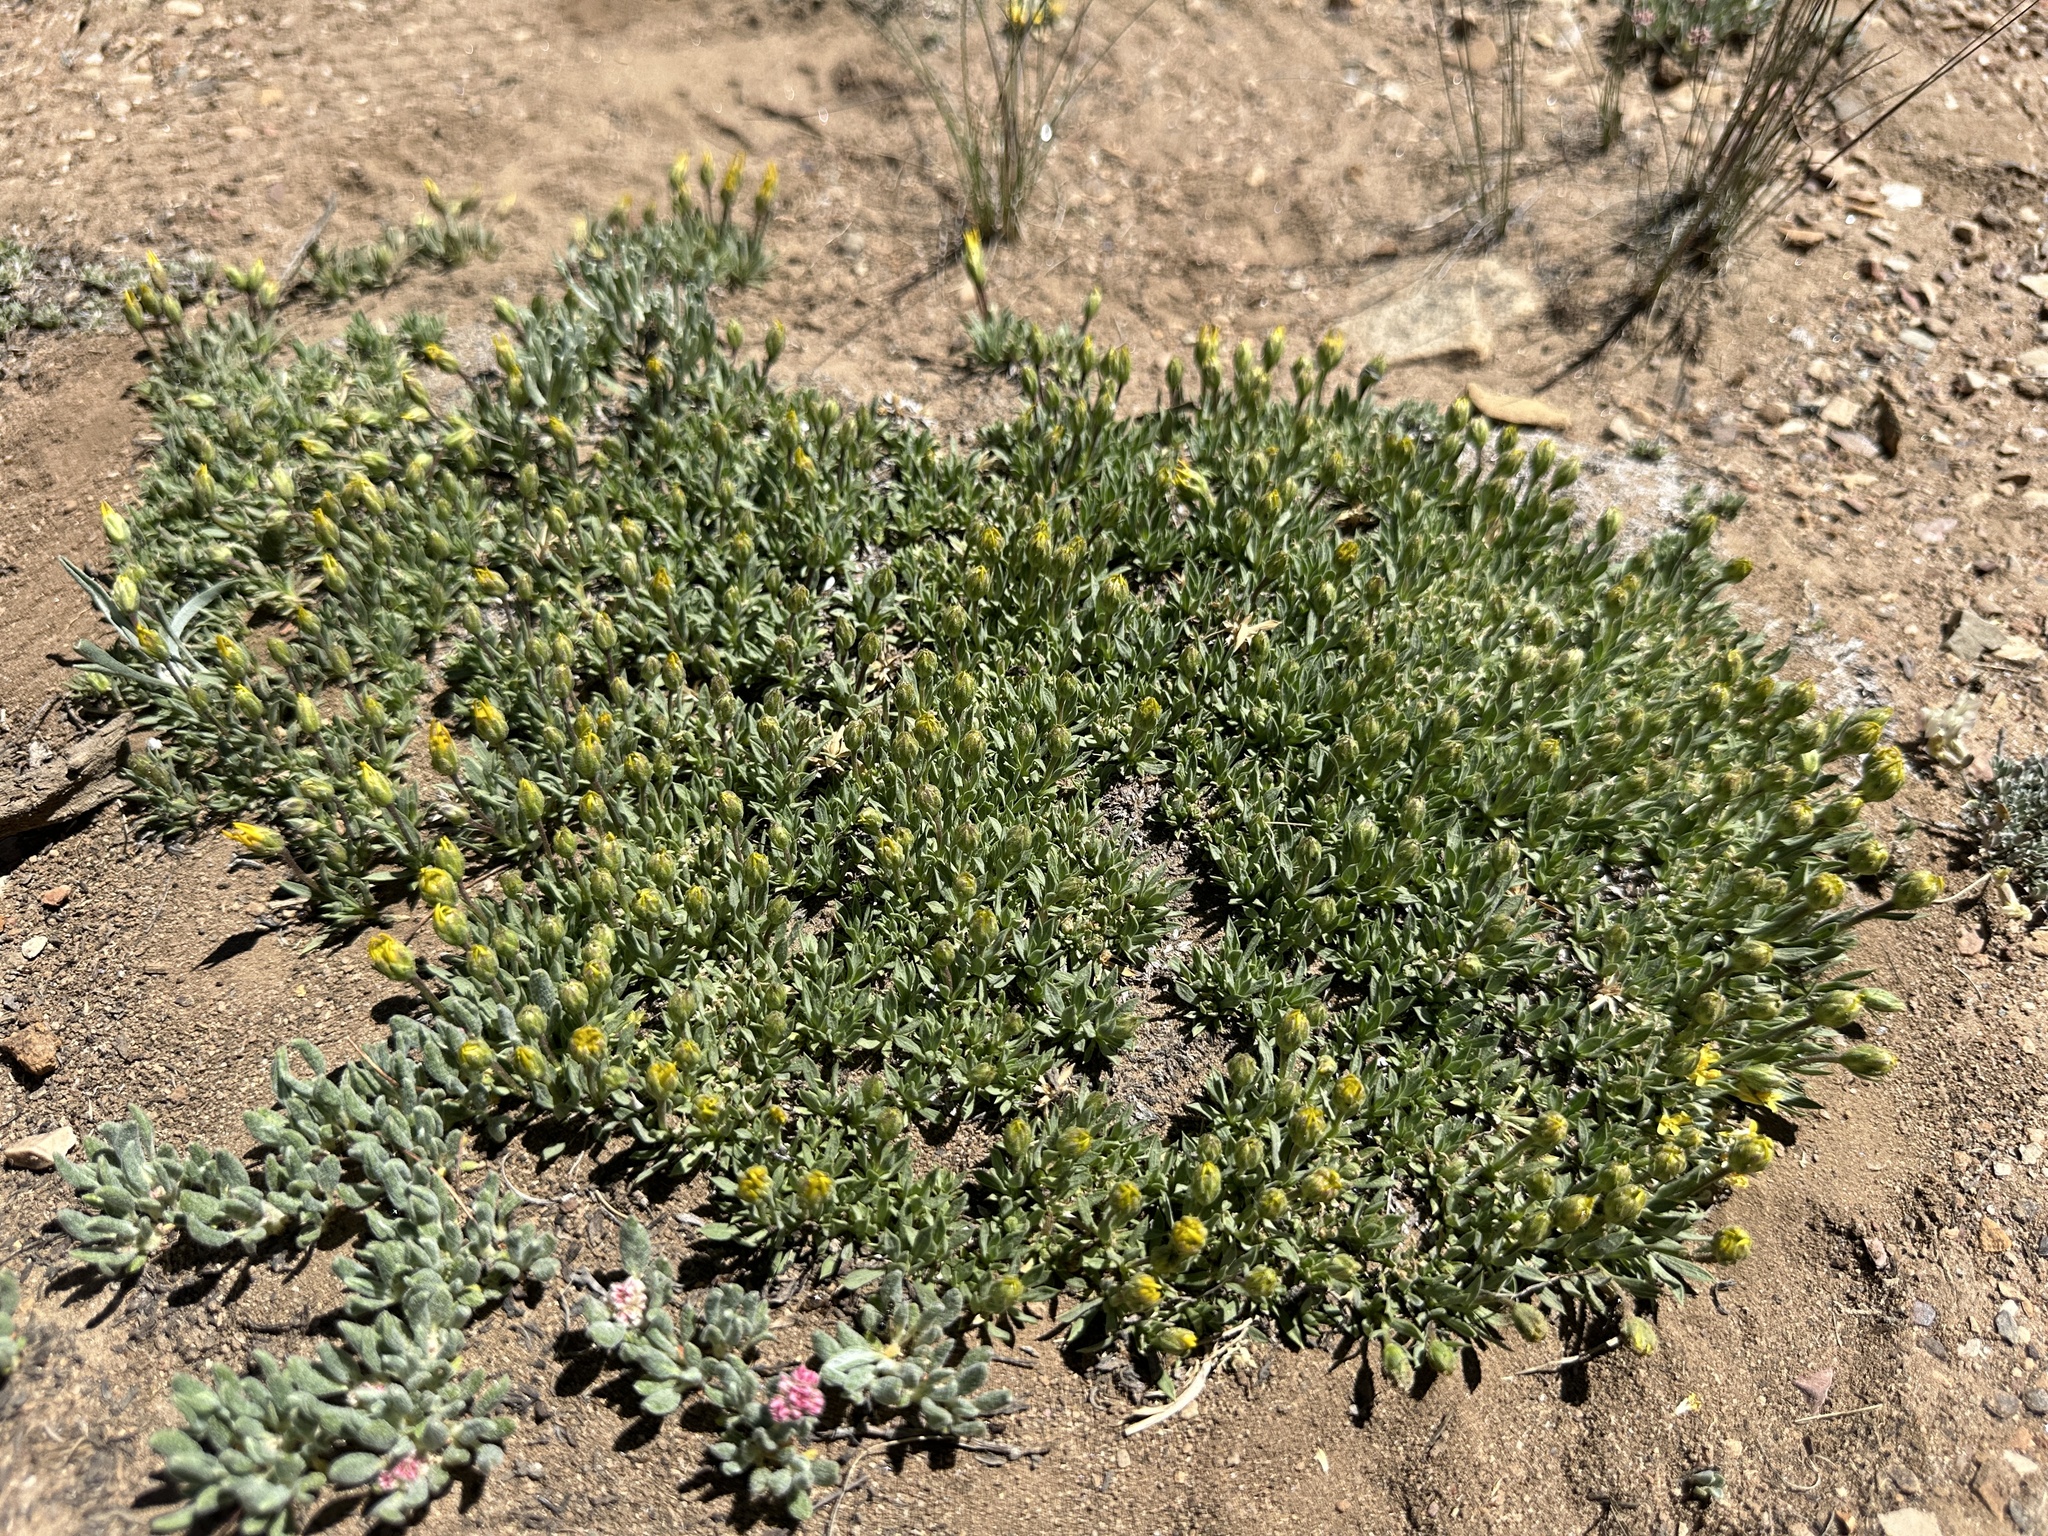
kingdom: Plantae
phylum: Tracheophyta
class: Magnoliopsida
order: Asterales
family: Asteraceae
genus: Stenotus
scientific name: Stenotus acaulis
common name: Stemless goldenweed
